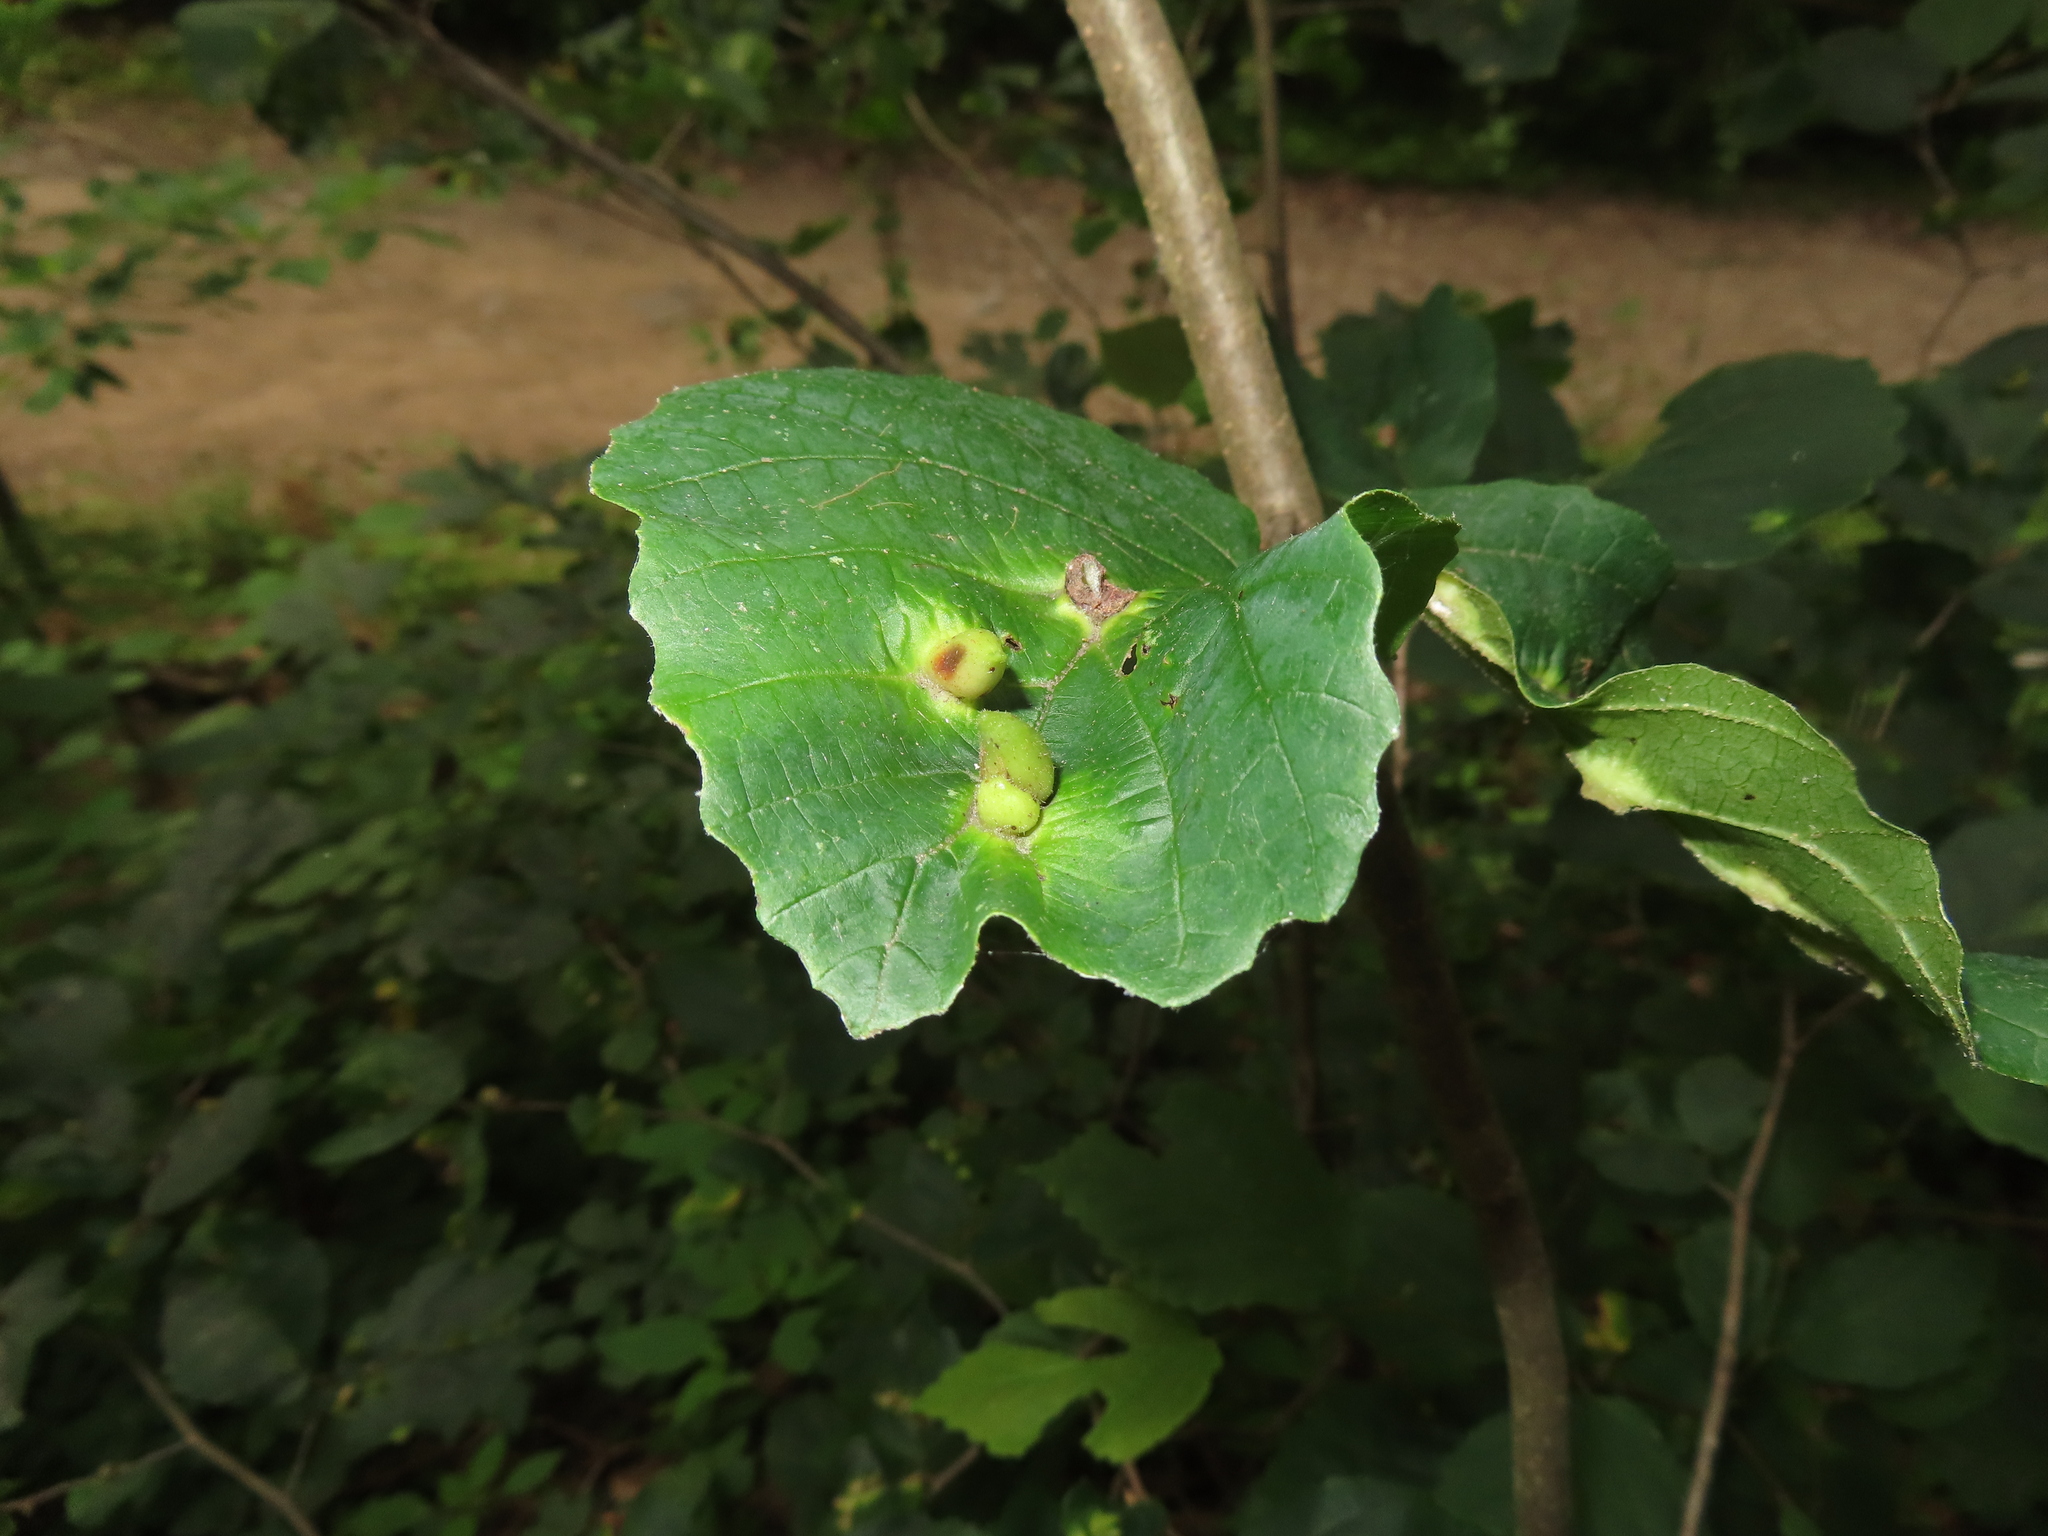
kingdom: Animalia
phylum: Arthropoda
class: Insecta
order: Hemiptera
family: Aphididae
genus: Hormaphis
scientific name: Hormaphis hamamelidis
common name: Witch-hazel cone gall aphid
